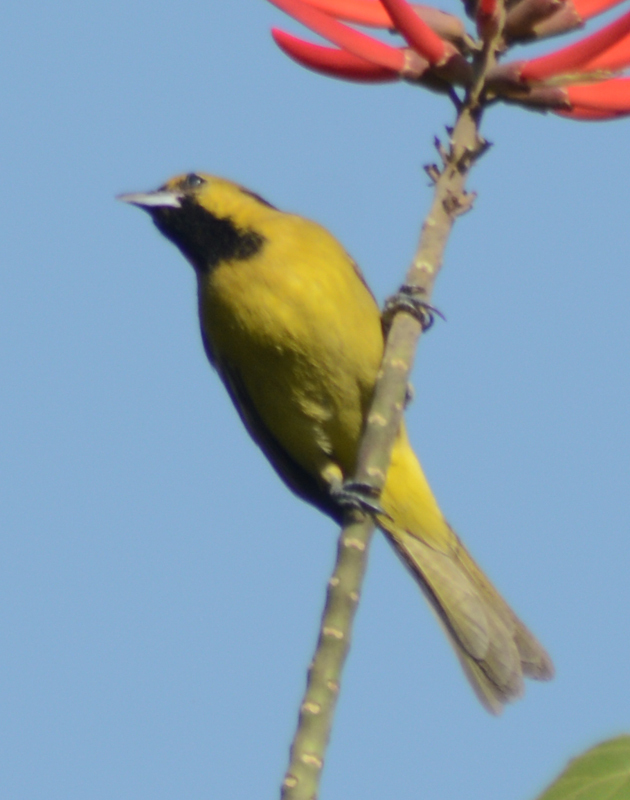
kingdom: Animalia
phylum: Chordata
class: Aves
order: Passeriformes
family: Icteridae
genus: Icterus
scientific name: Icterus spurius
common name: Orchard oriole
